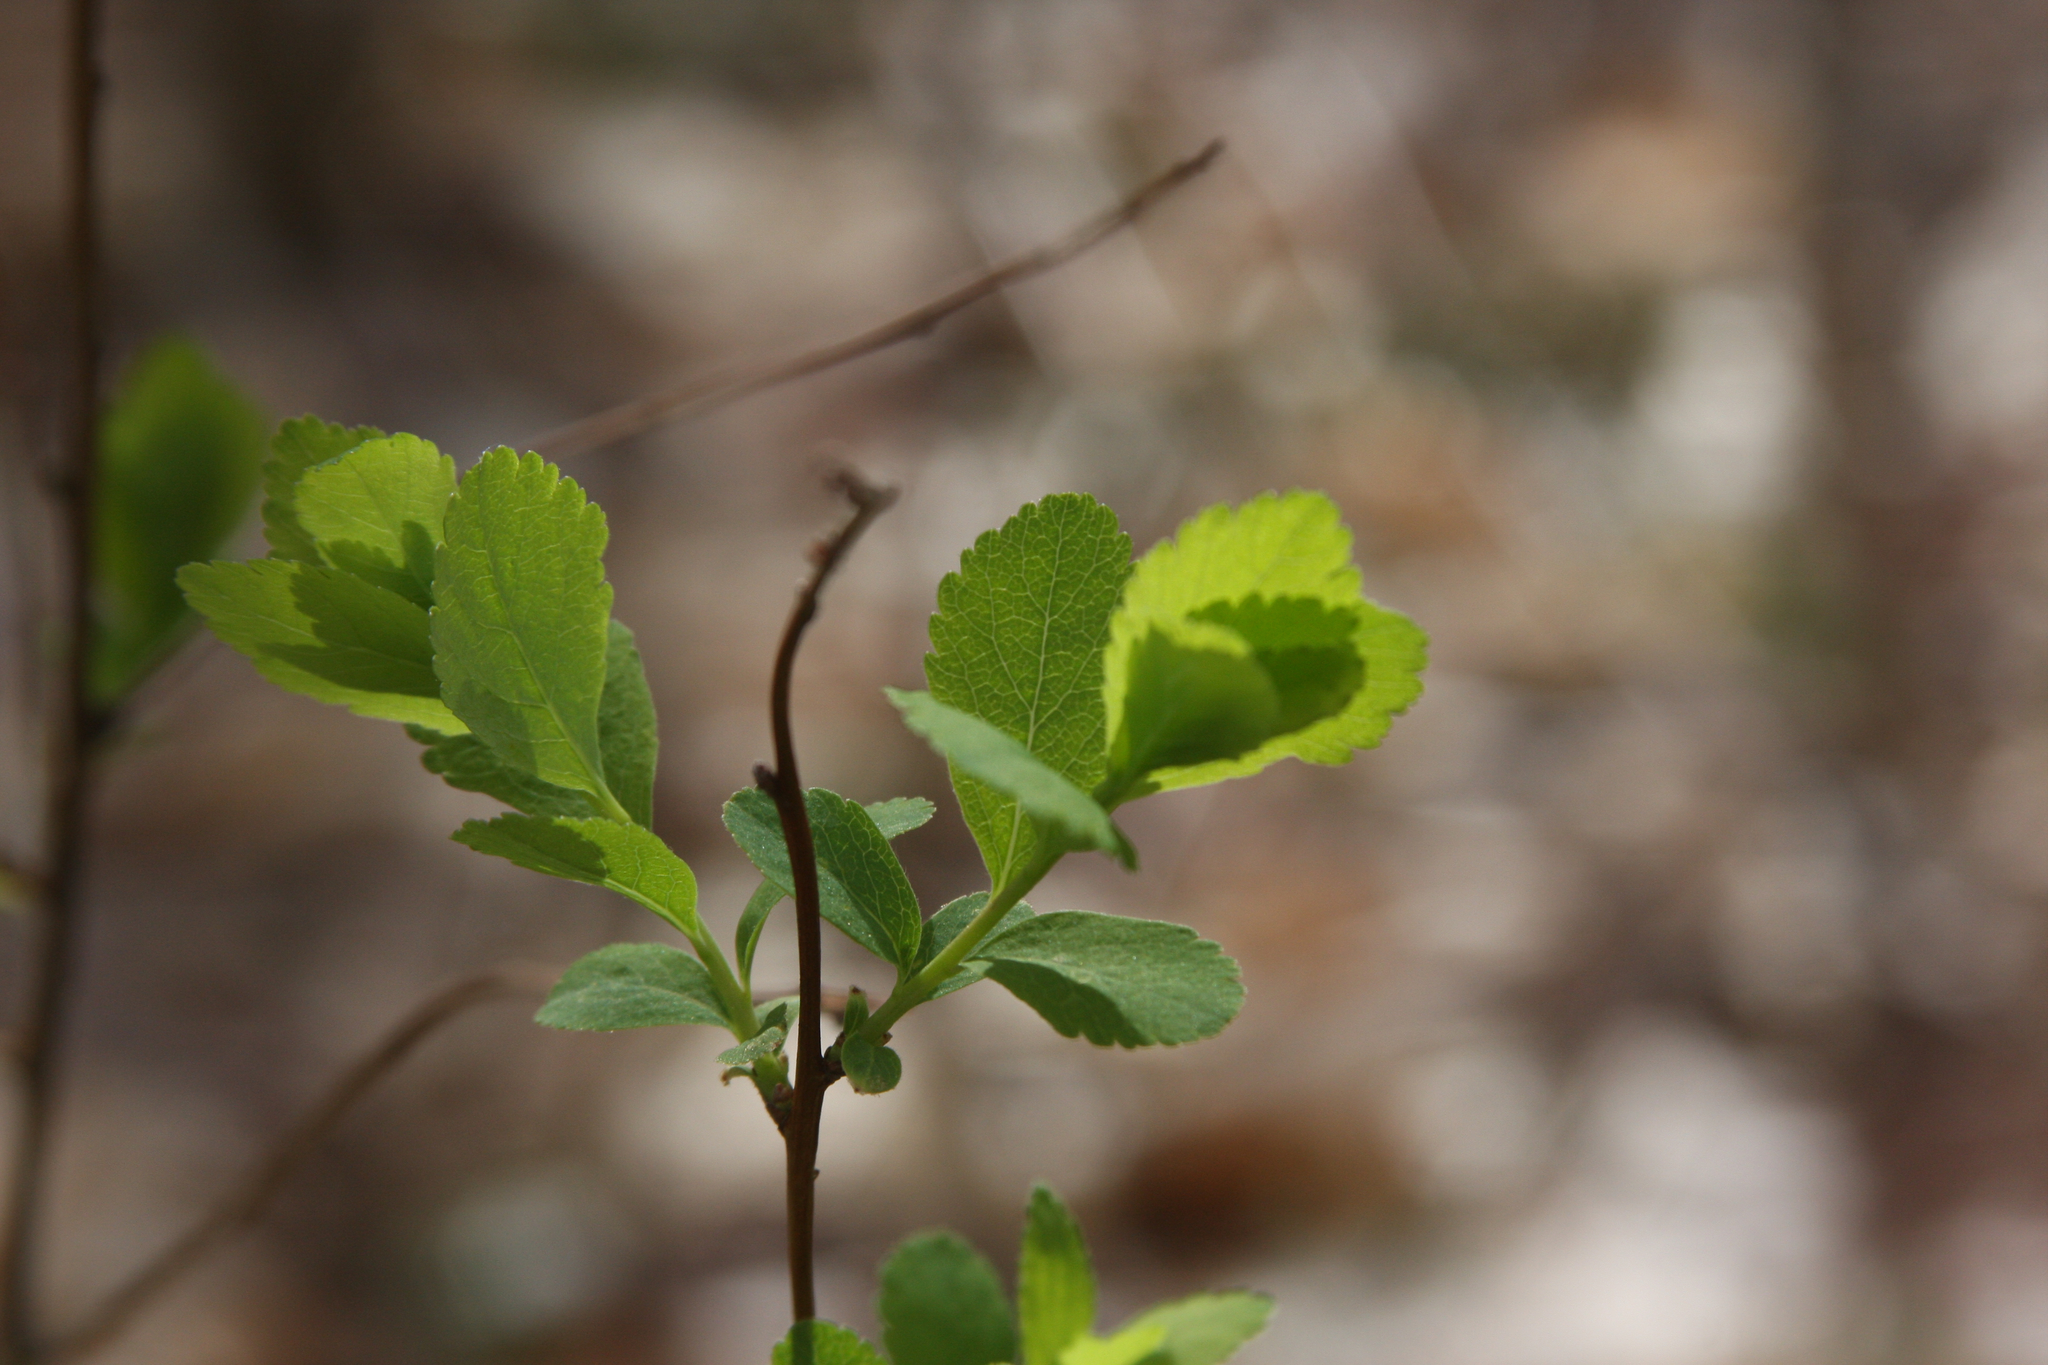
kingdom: Plantae
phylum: Tracheophyta
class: Magnoliopsida
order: Rosales
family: Rosaceae
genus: Spiraea
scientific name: Spiraea alba
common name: Pale bridewort
